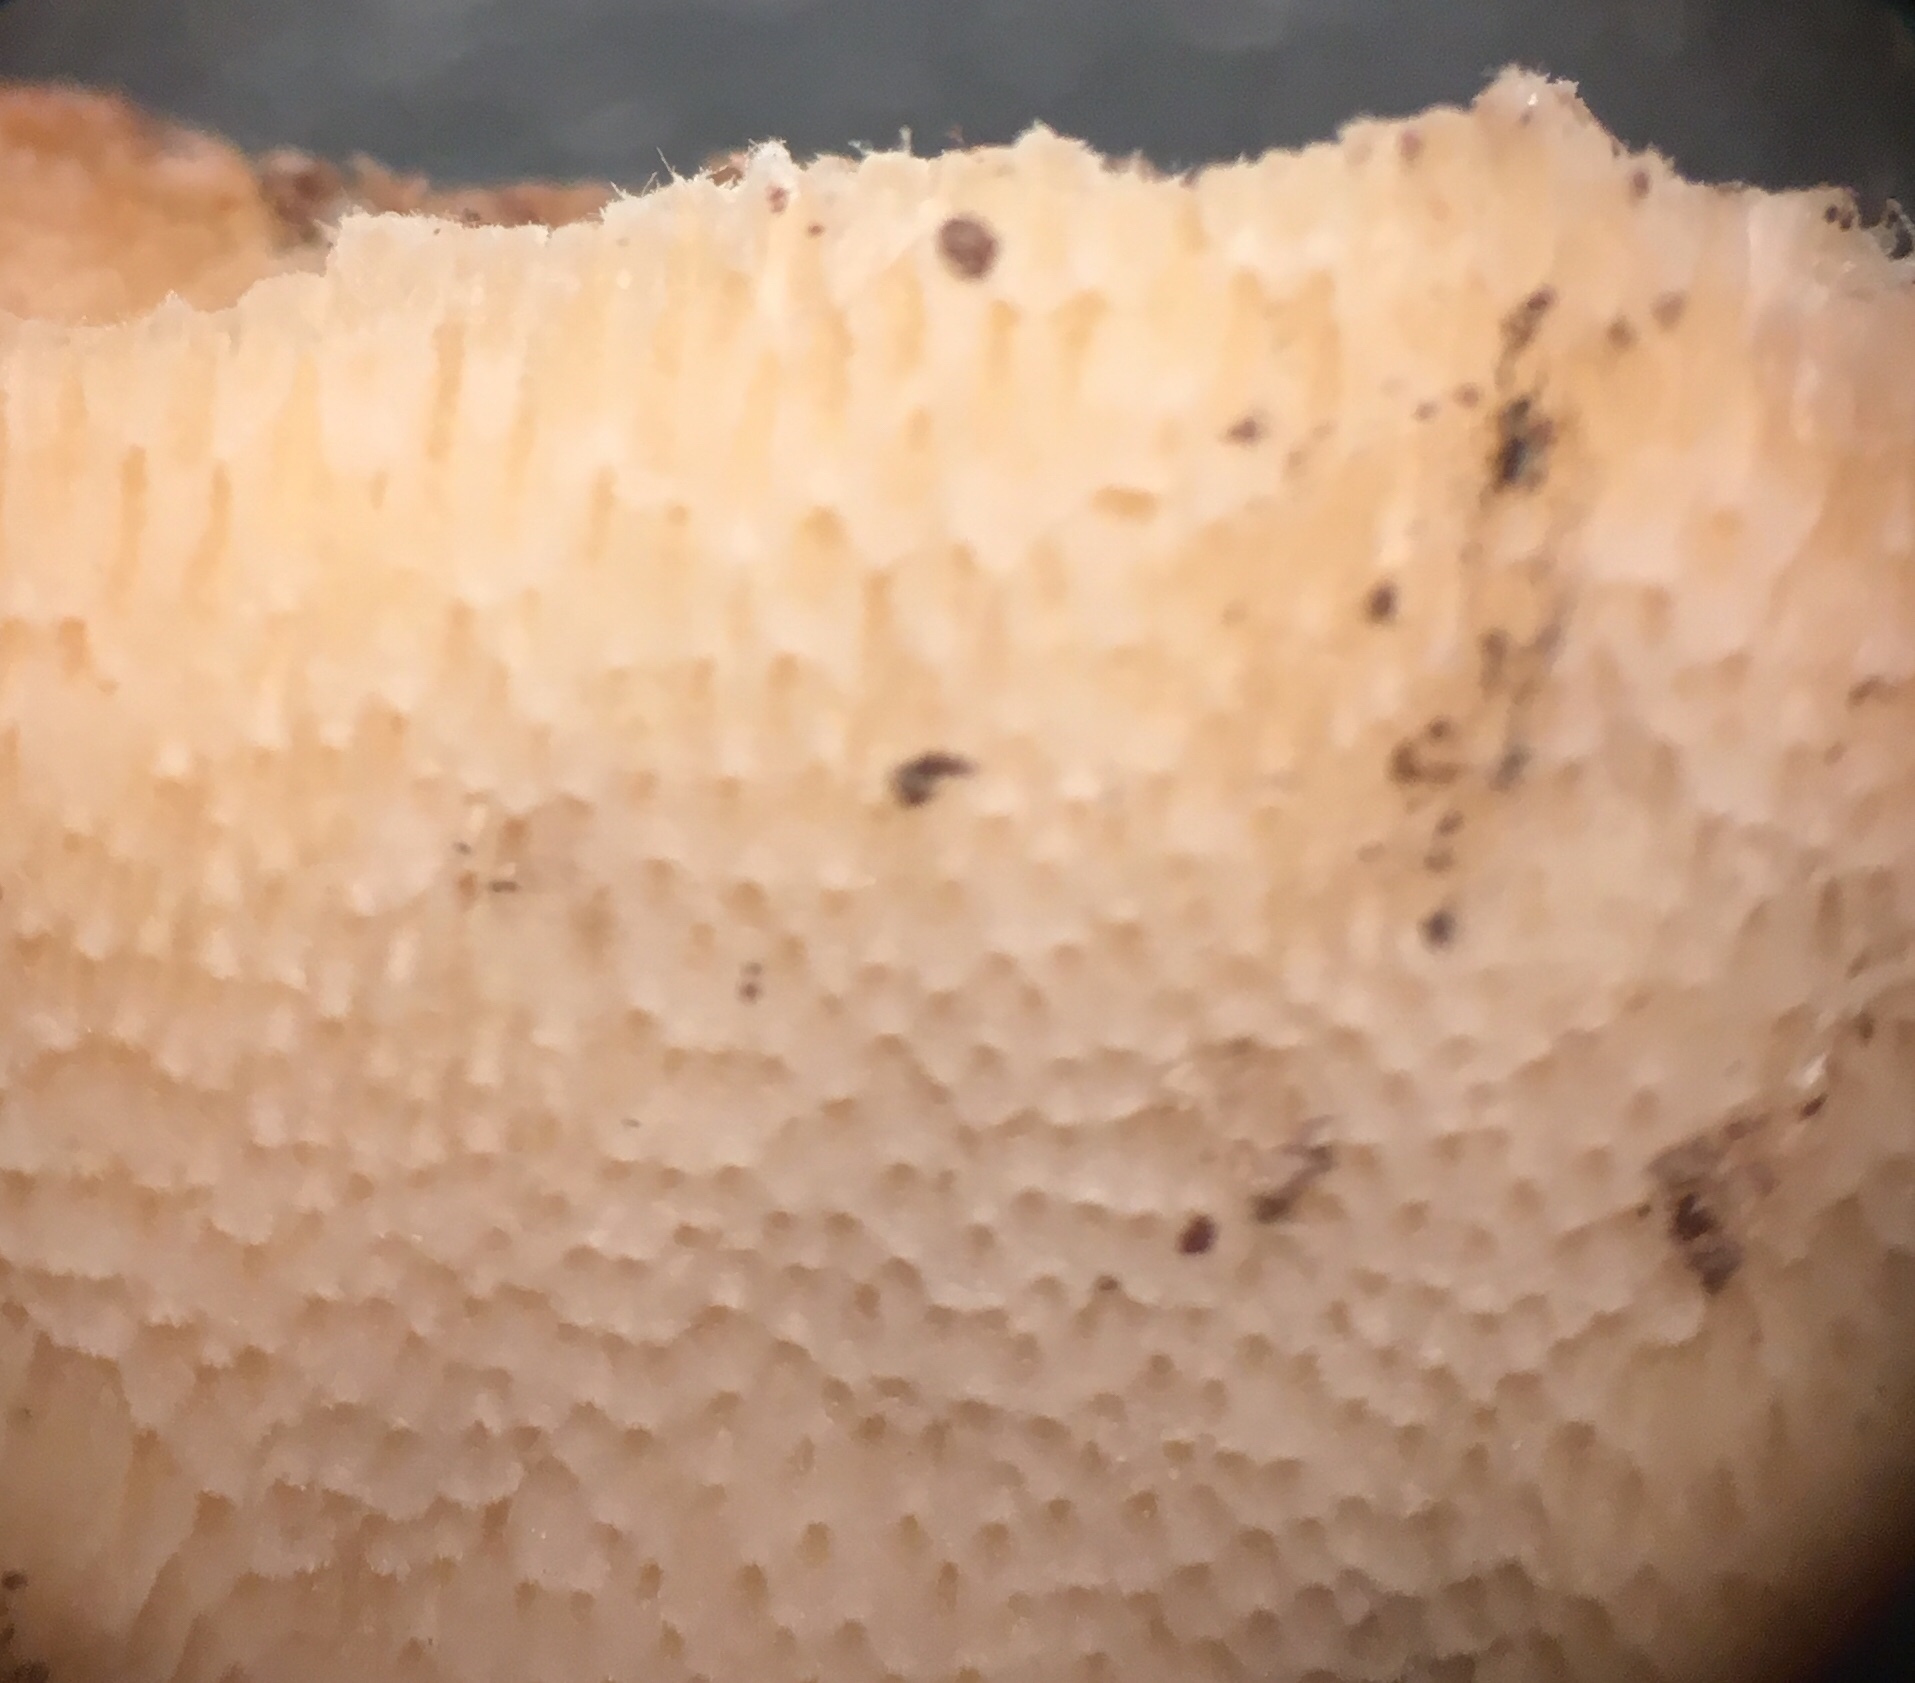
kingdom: Fungi
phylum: Basidiomycota
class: Agaricomycetes
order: Polyporales
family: Meruliaceae
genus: Physisporinus
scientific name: Physisporinus vitreus
